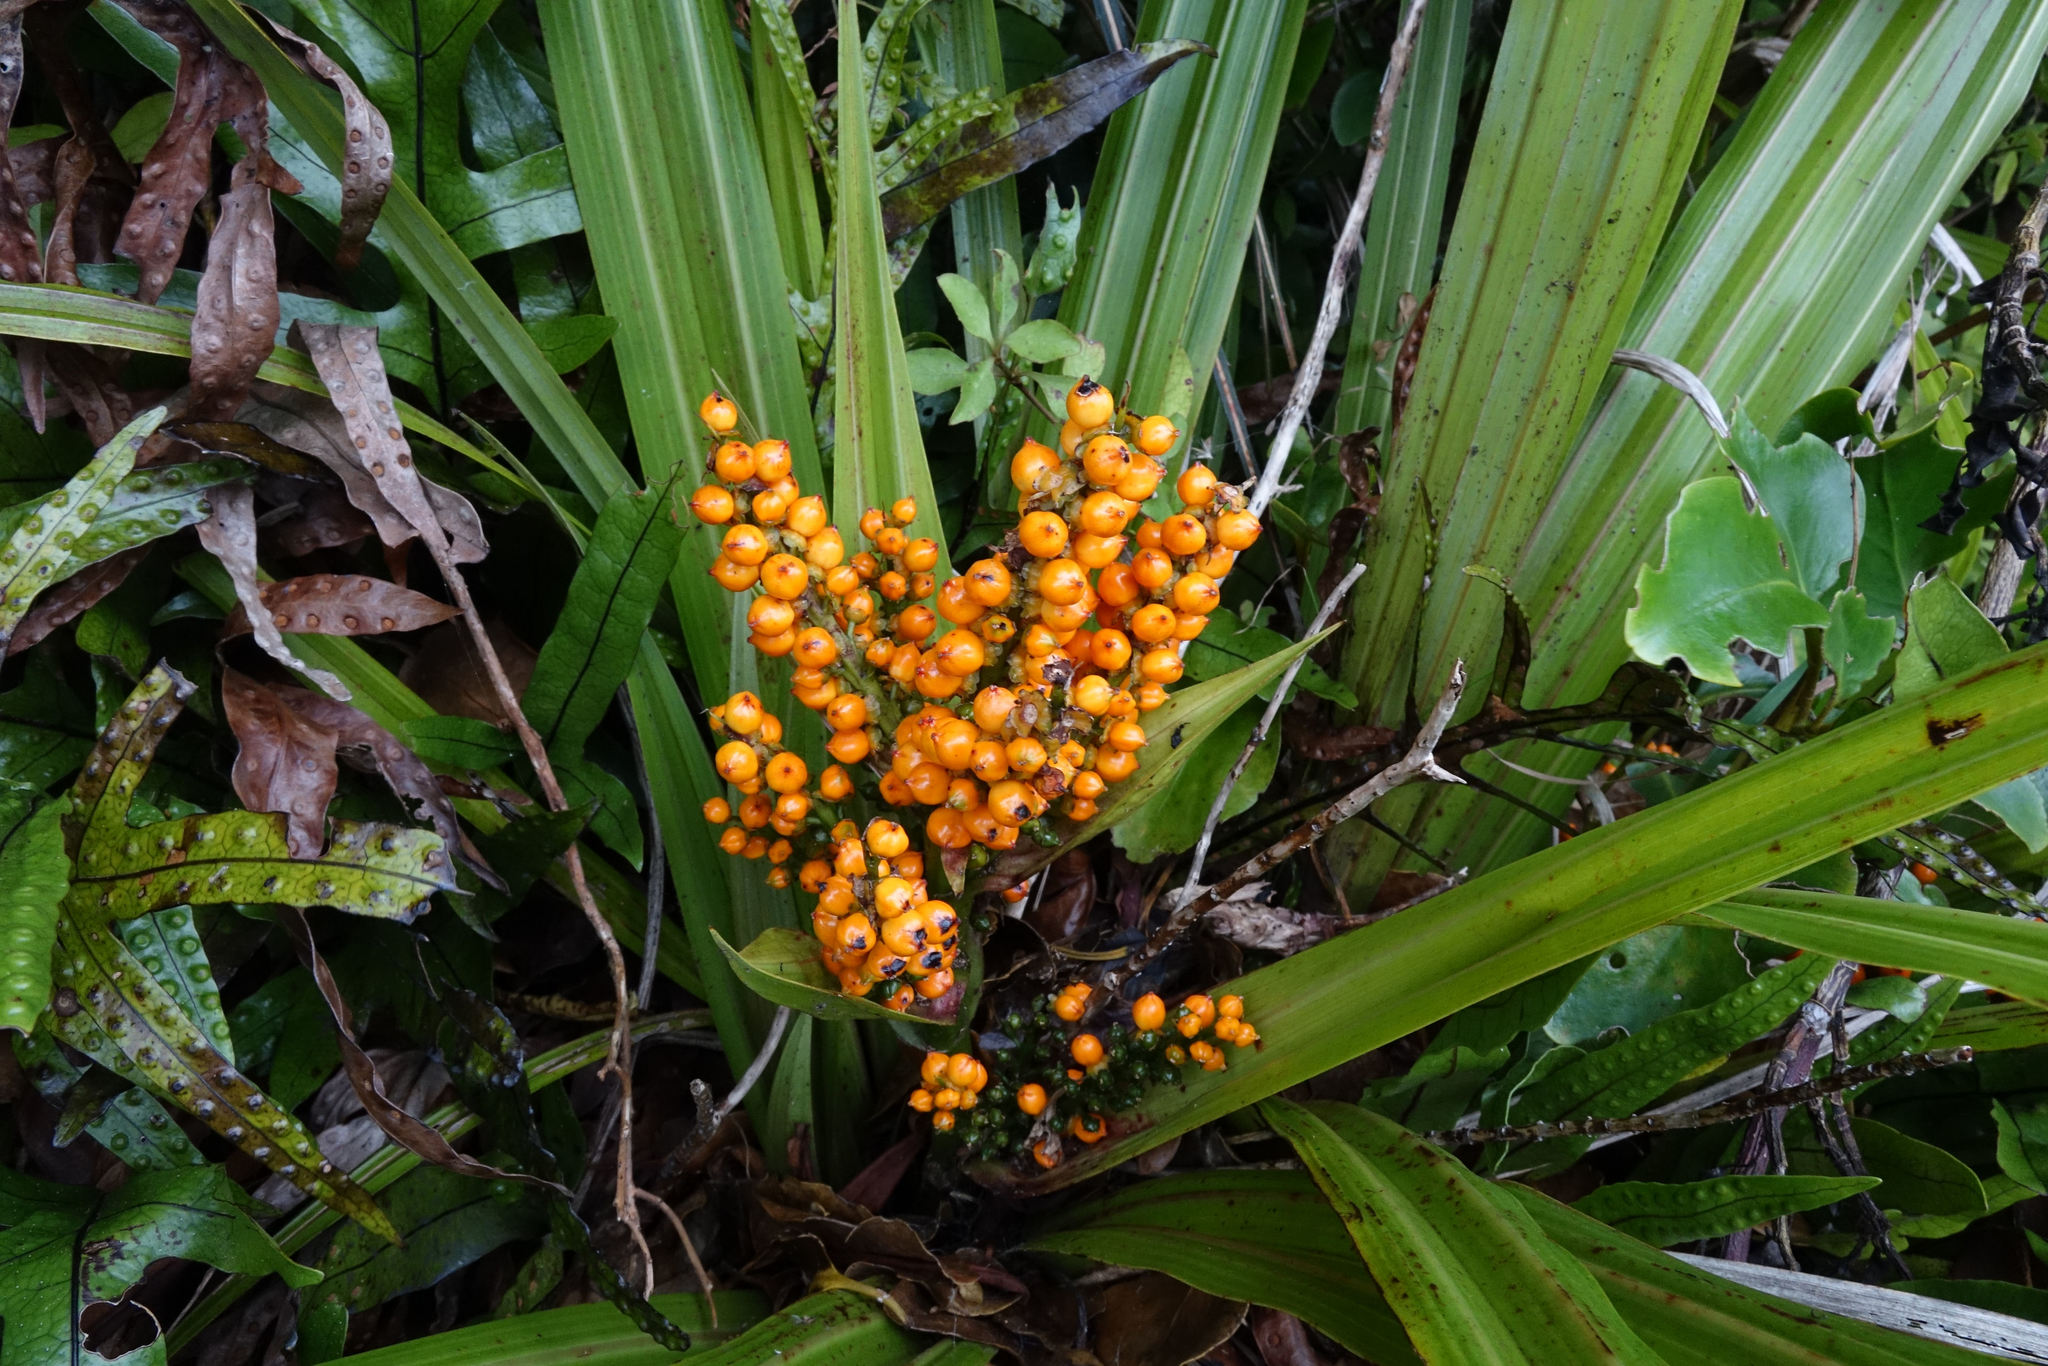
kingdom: Plantae
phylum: Tracheophyta
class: Liliopsida
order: Asparagales
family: Asteliaceae
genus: Astelia
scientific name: Astelia fragrans
